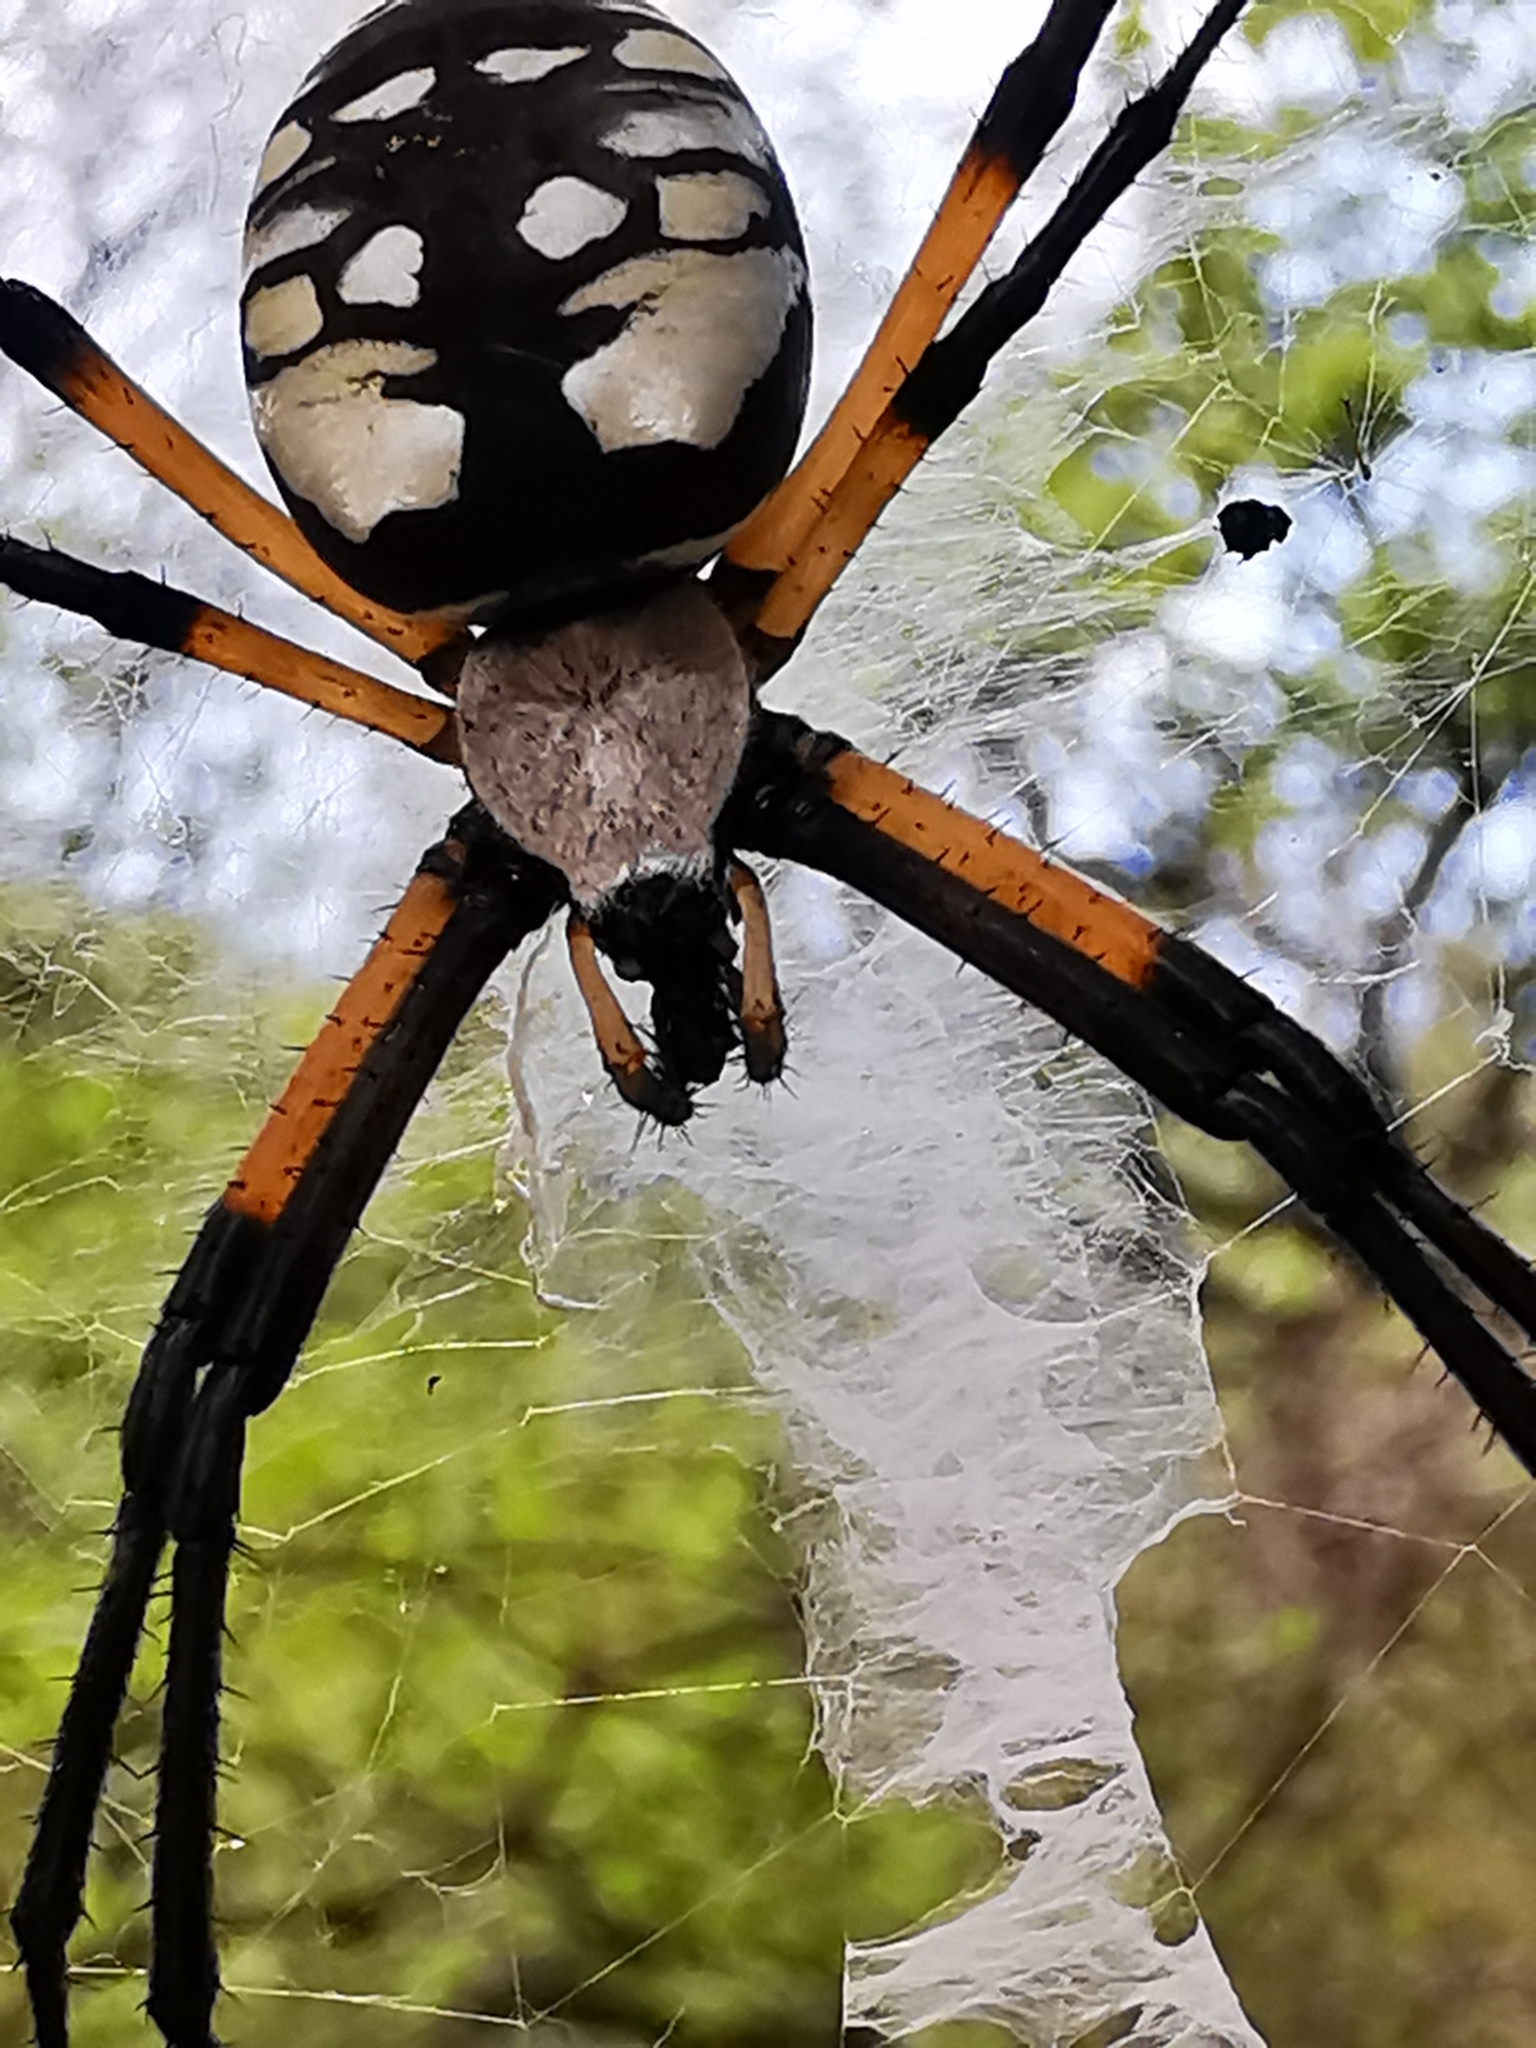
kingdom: Animalia
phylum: Arthropoda
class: Arachnida
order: Araneae
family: Araneidae
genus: Argiope
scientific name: Argiope aurantia
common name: Orb weavers
